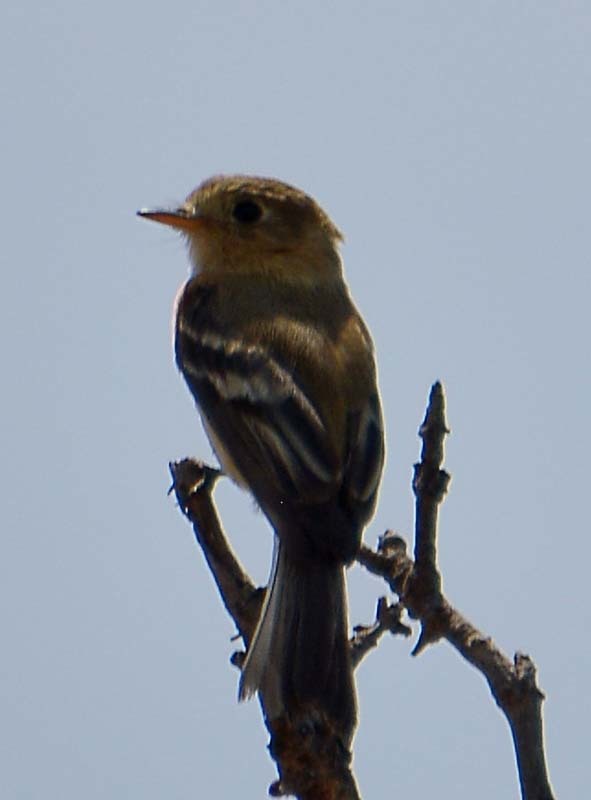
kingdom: Animalia
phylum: Chordata
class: Aves
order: Passeriformes
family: Tyrannidae
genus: Empidonax
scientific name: Empidonax fulvifrons
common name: Buff-breasted flycatcher
